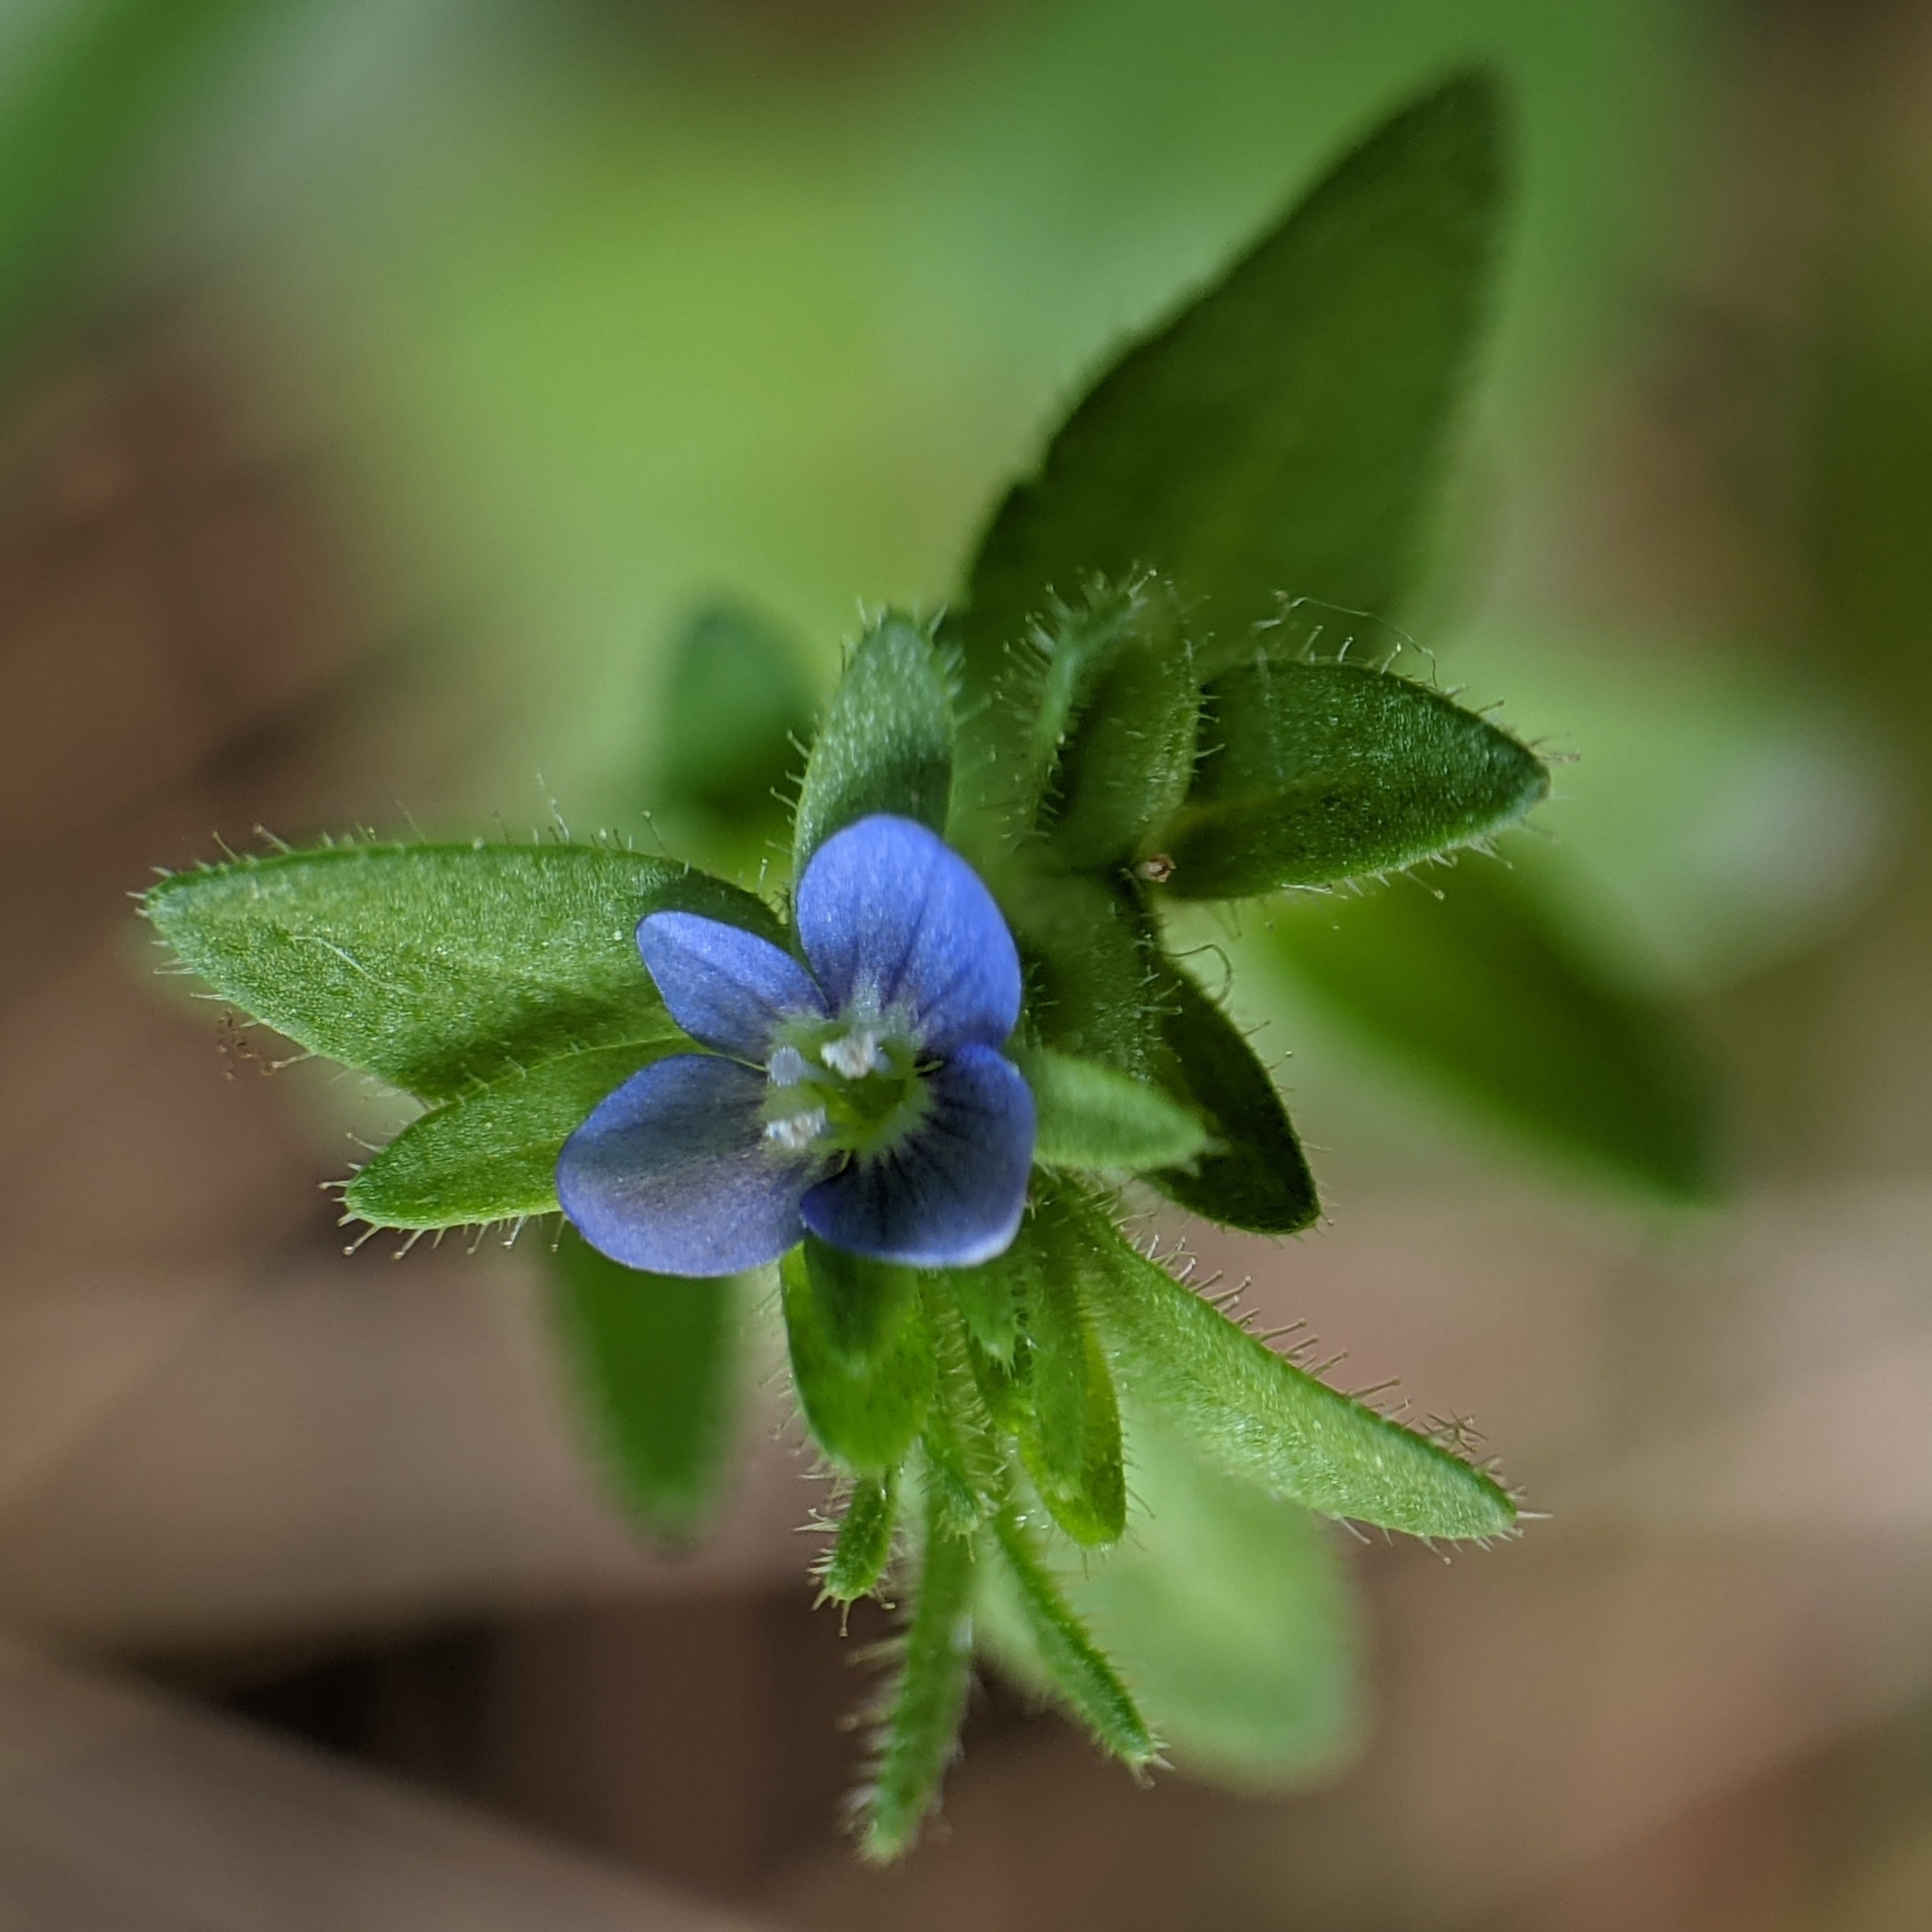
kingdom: Plantae
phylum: Tracheophyta
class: Magnoliopsida
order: Lamiales
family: Plantaginaceae
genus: Veronica
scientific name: Veronica arvensis
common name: Corn speedwell
